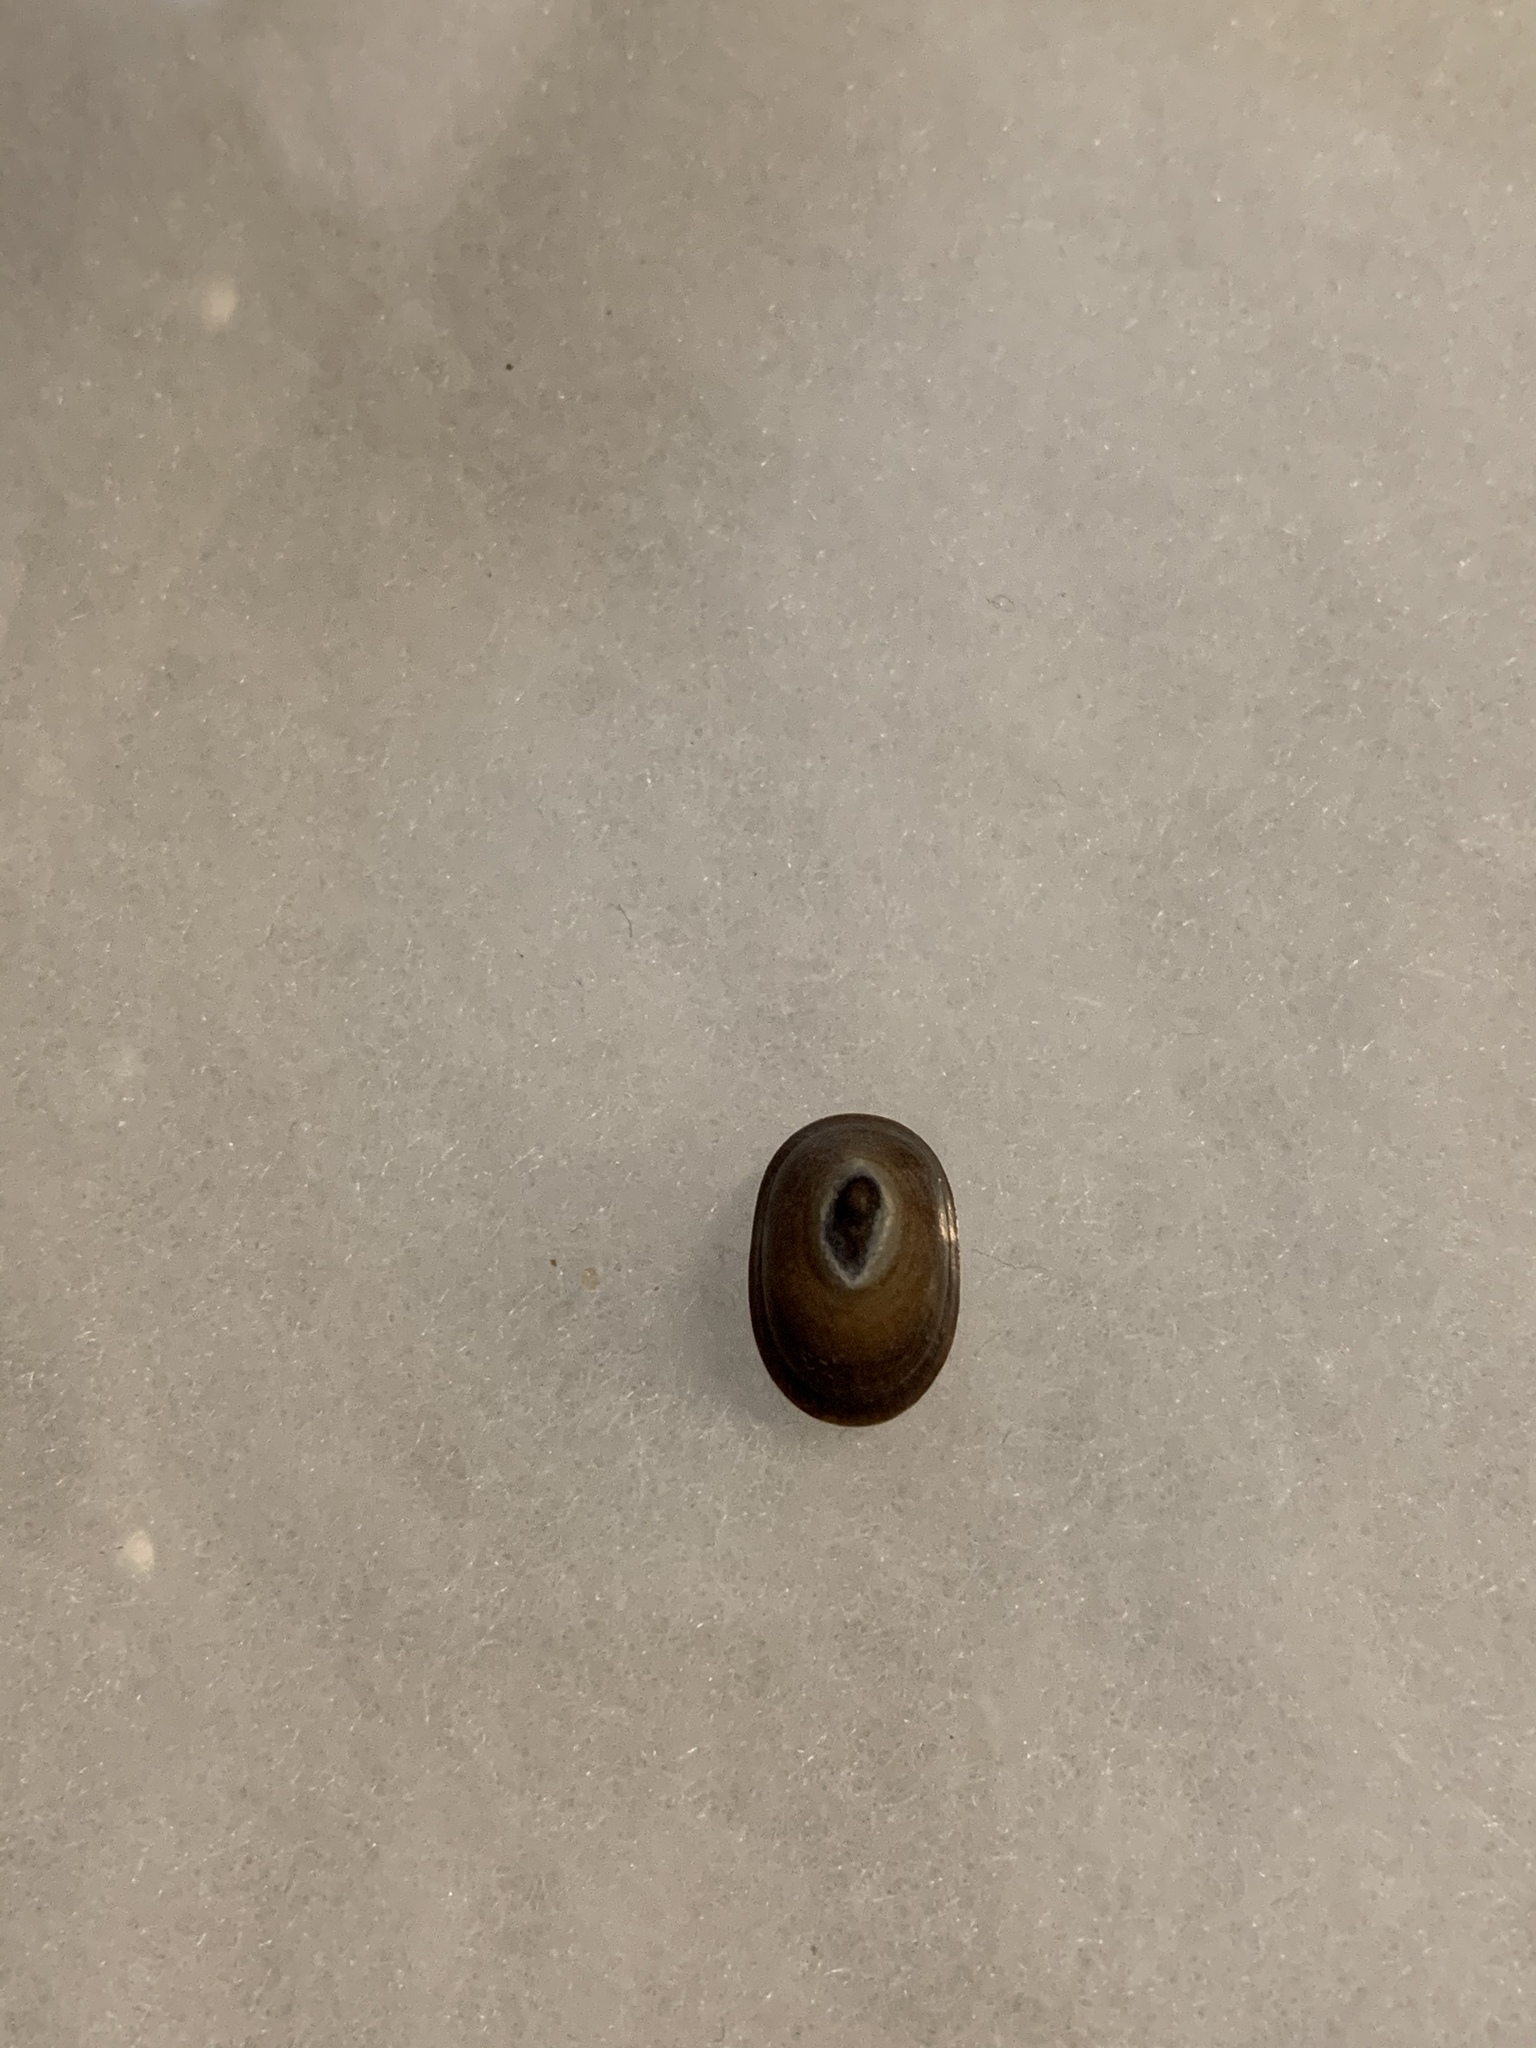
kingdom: Animalia
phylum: Mollusca
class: Gastropoda
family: Lottiidae
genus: Discurria
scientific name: Discurria insessa
